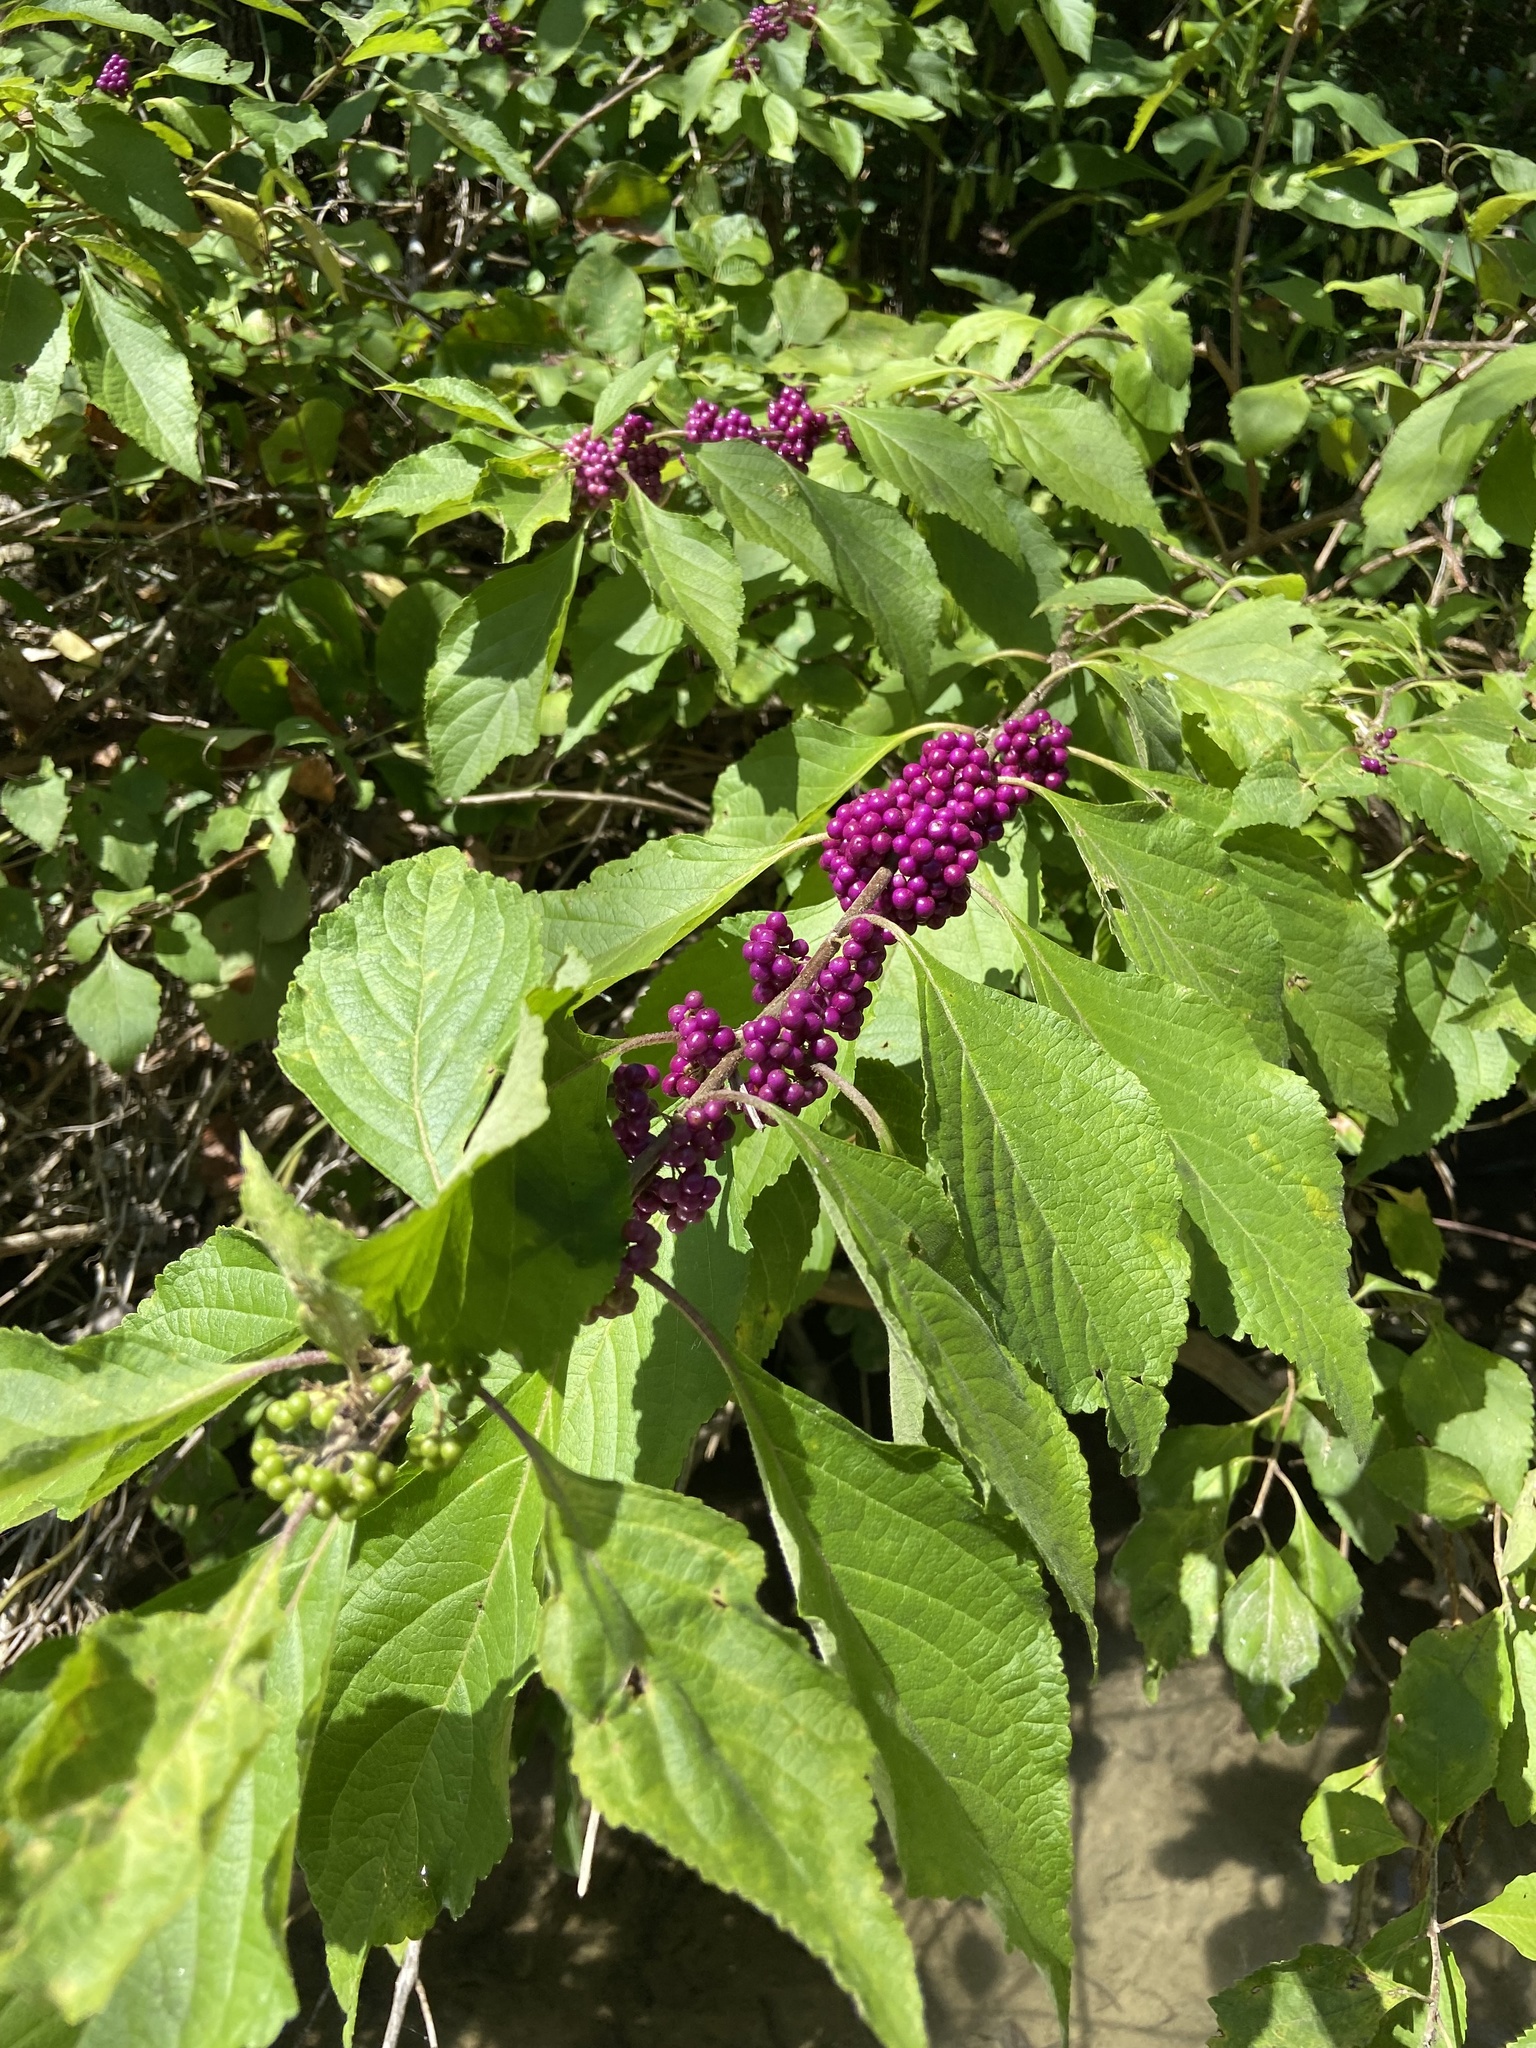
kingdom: Plantae
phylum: Tracheophyta
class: Magnoliopsida
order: Lamiales
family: Lamiaceae
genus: Callicarpa
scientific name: Callicarpa americana
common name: American beautyberry
